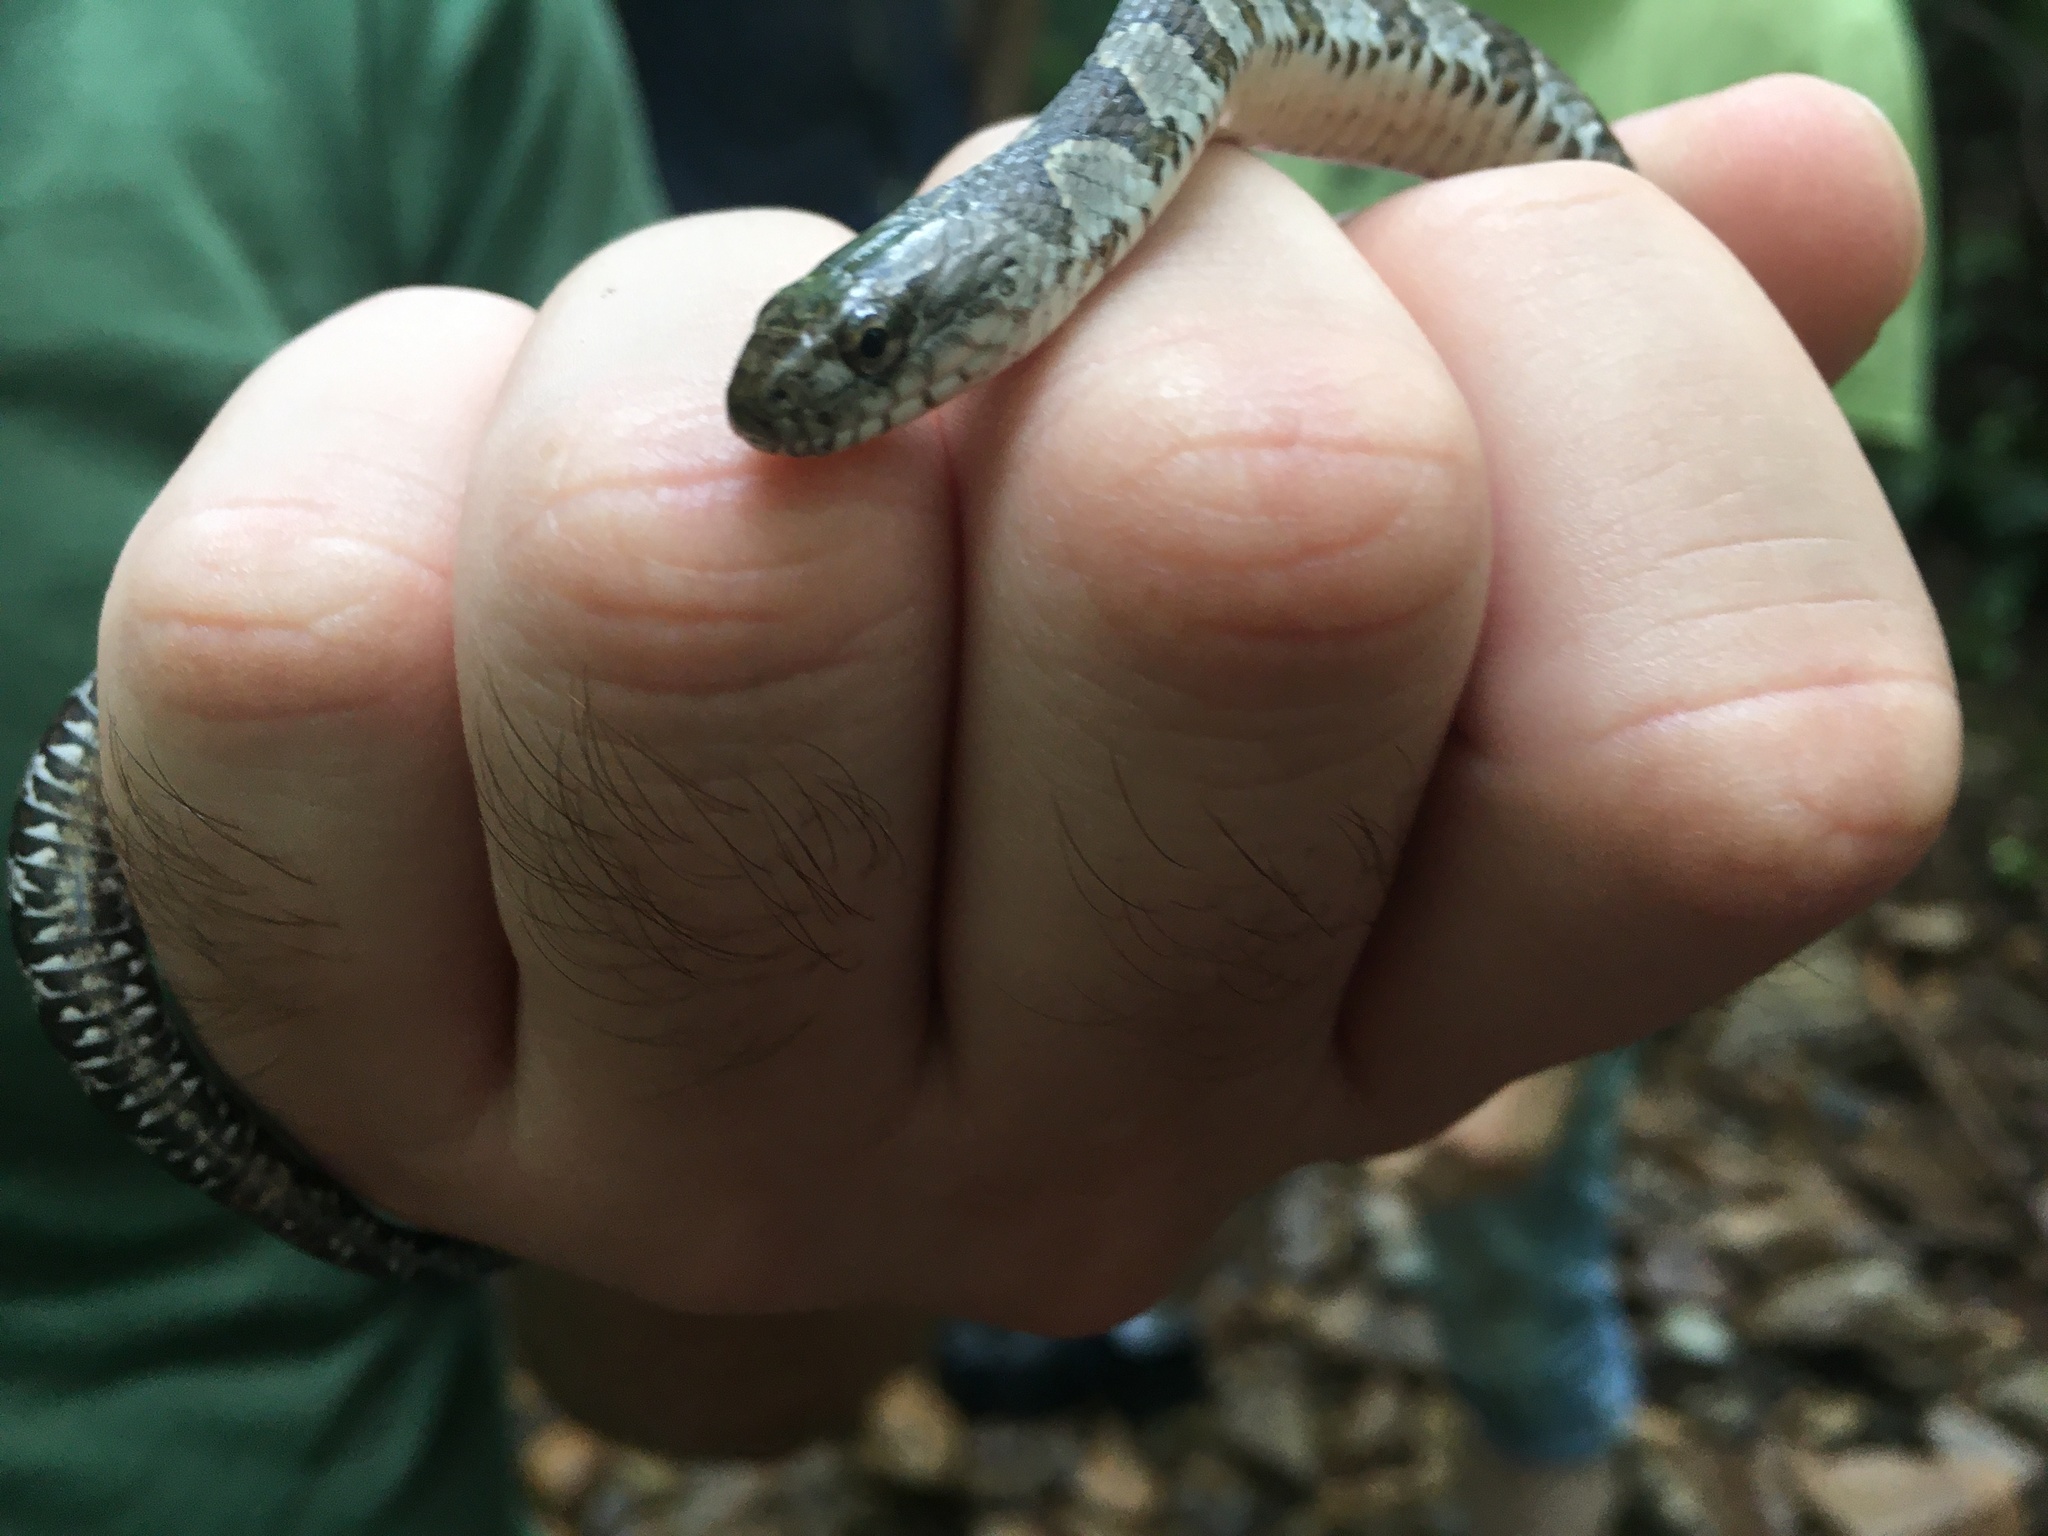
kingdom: Animalia
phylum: Chordata
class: Squamata
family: Colubridae
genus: Nerodia
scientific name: Nerodia sipedon
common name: Northern water snake
